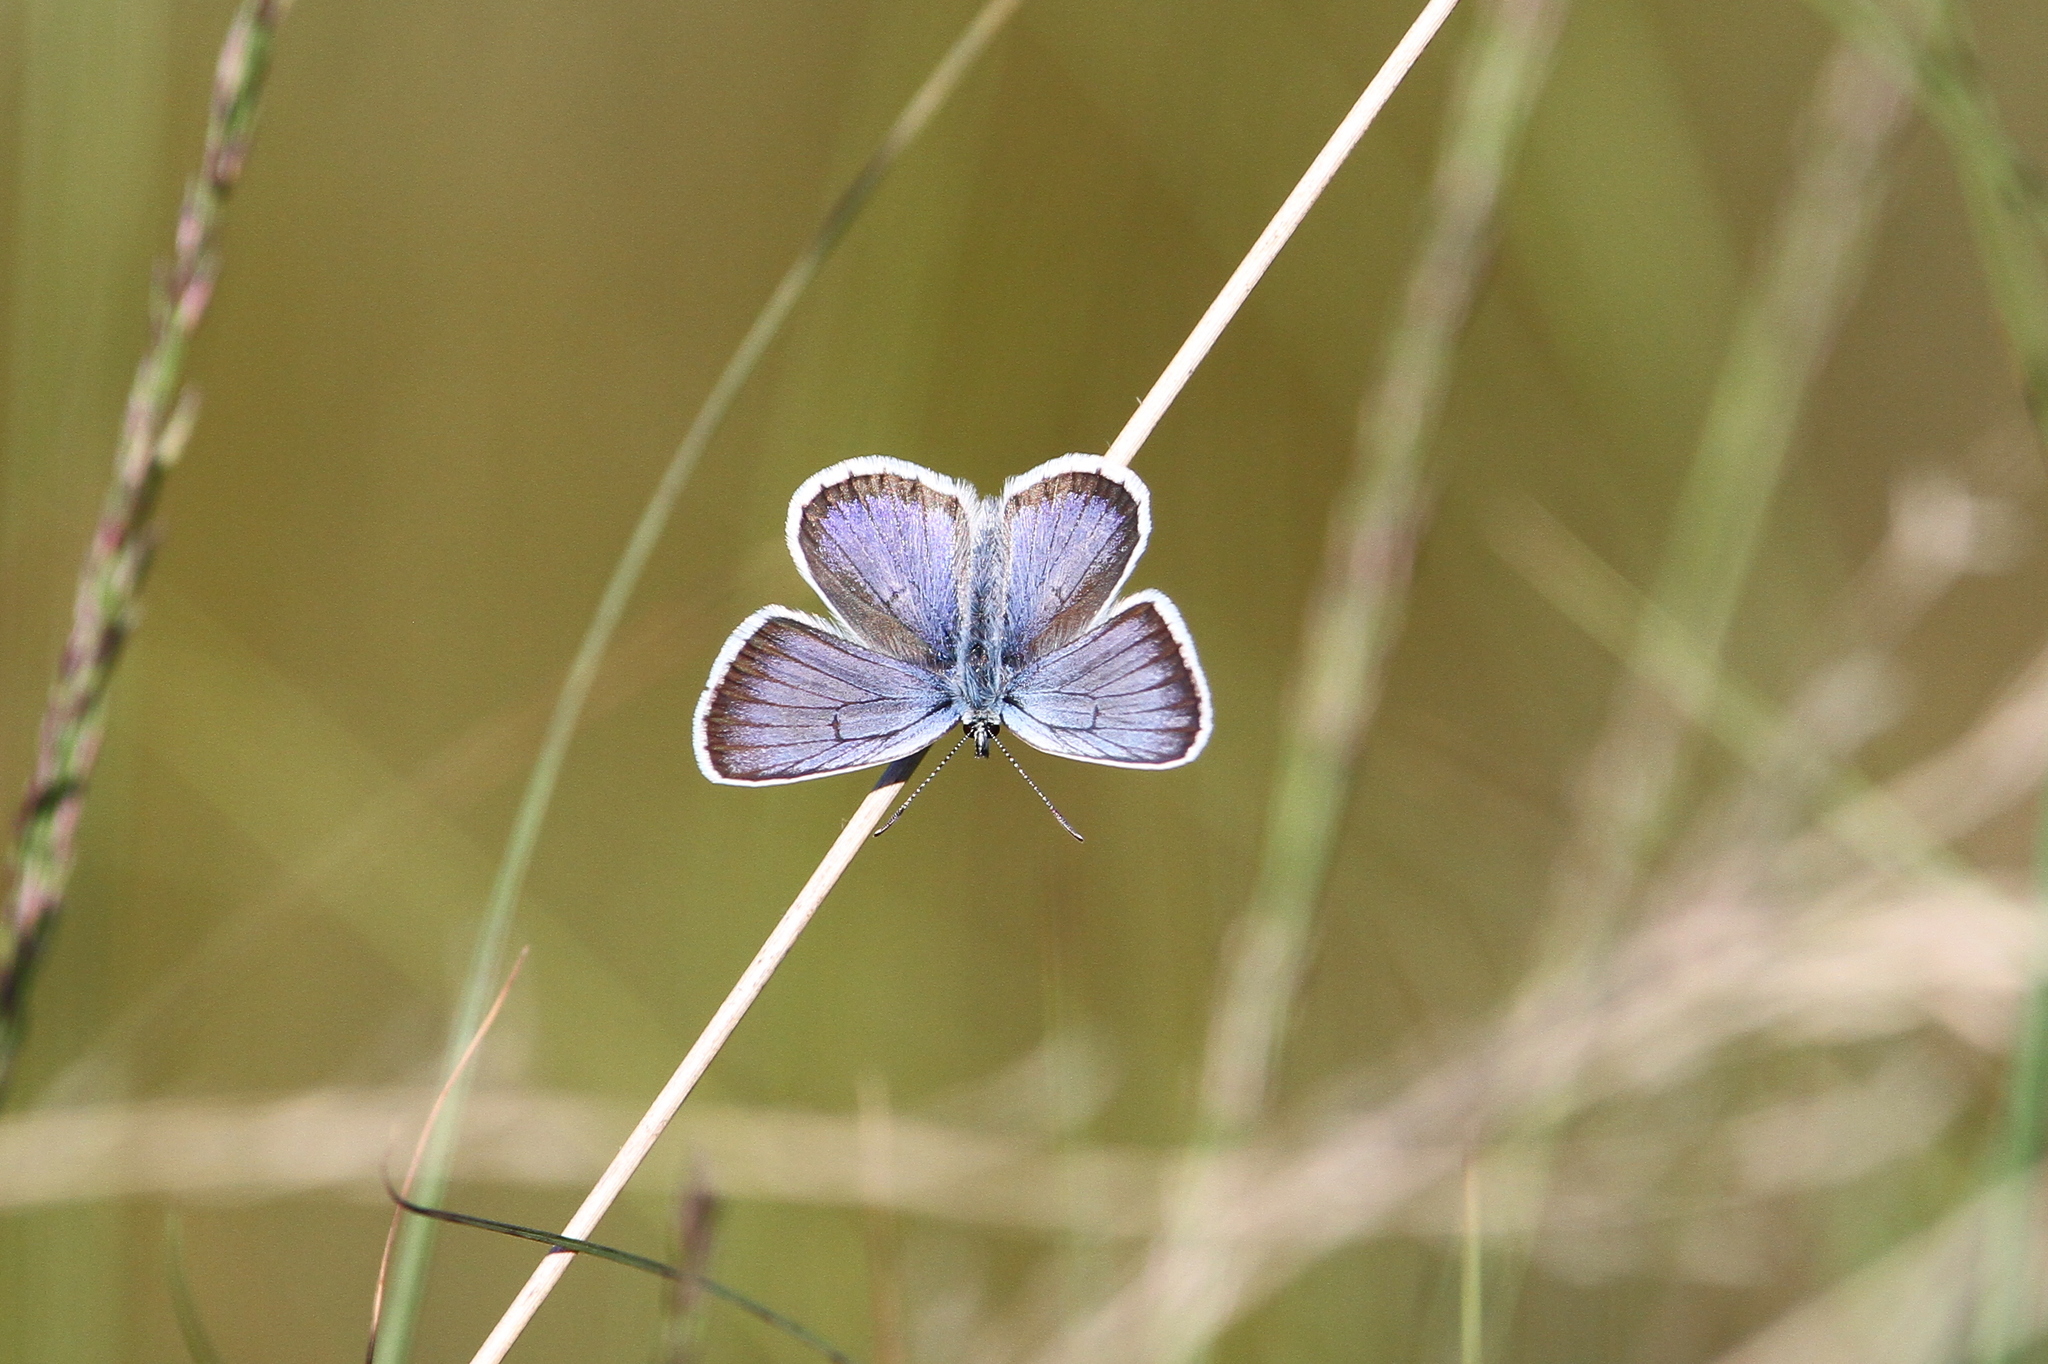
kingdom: Animalia
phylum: Arthropoda
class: Insecta
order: Lepidoptera
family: Lycaenidae
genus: Plebejus
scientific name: Plebejus argus
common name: Silver-studded blue
